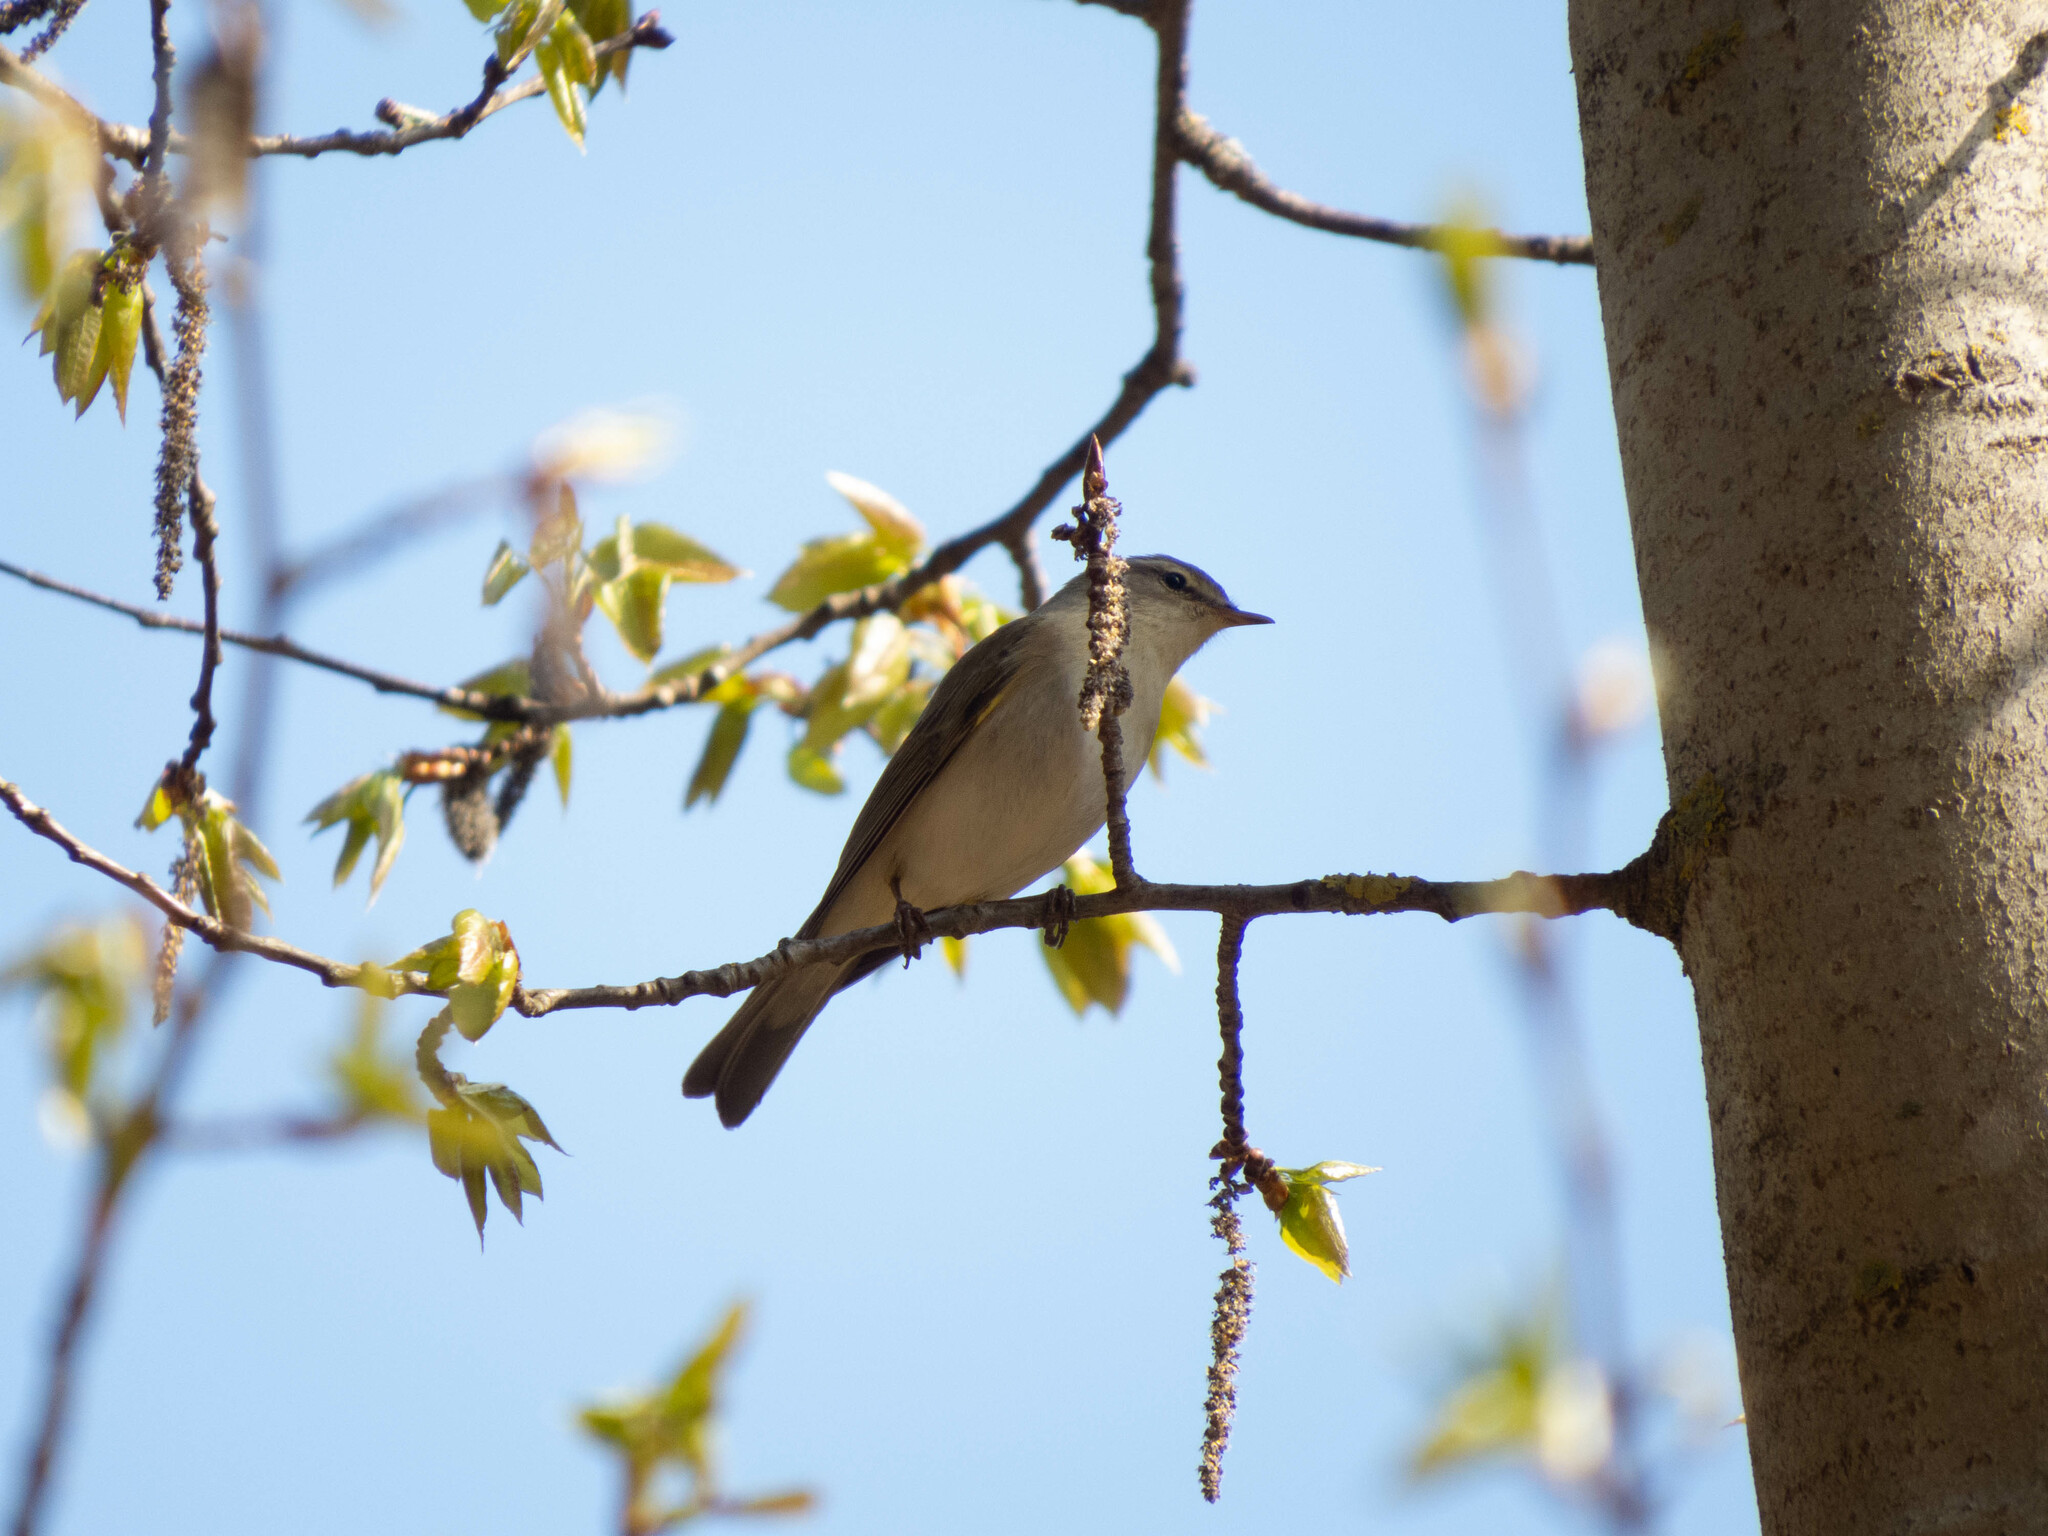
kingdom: Animalia
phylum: Chordata
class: Aves
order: Passeriformes
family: Phylloscopidae
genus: Phylloscopus
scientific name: Phylloscopus trochilus
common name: Willow warbler
